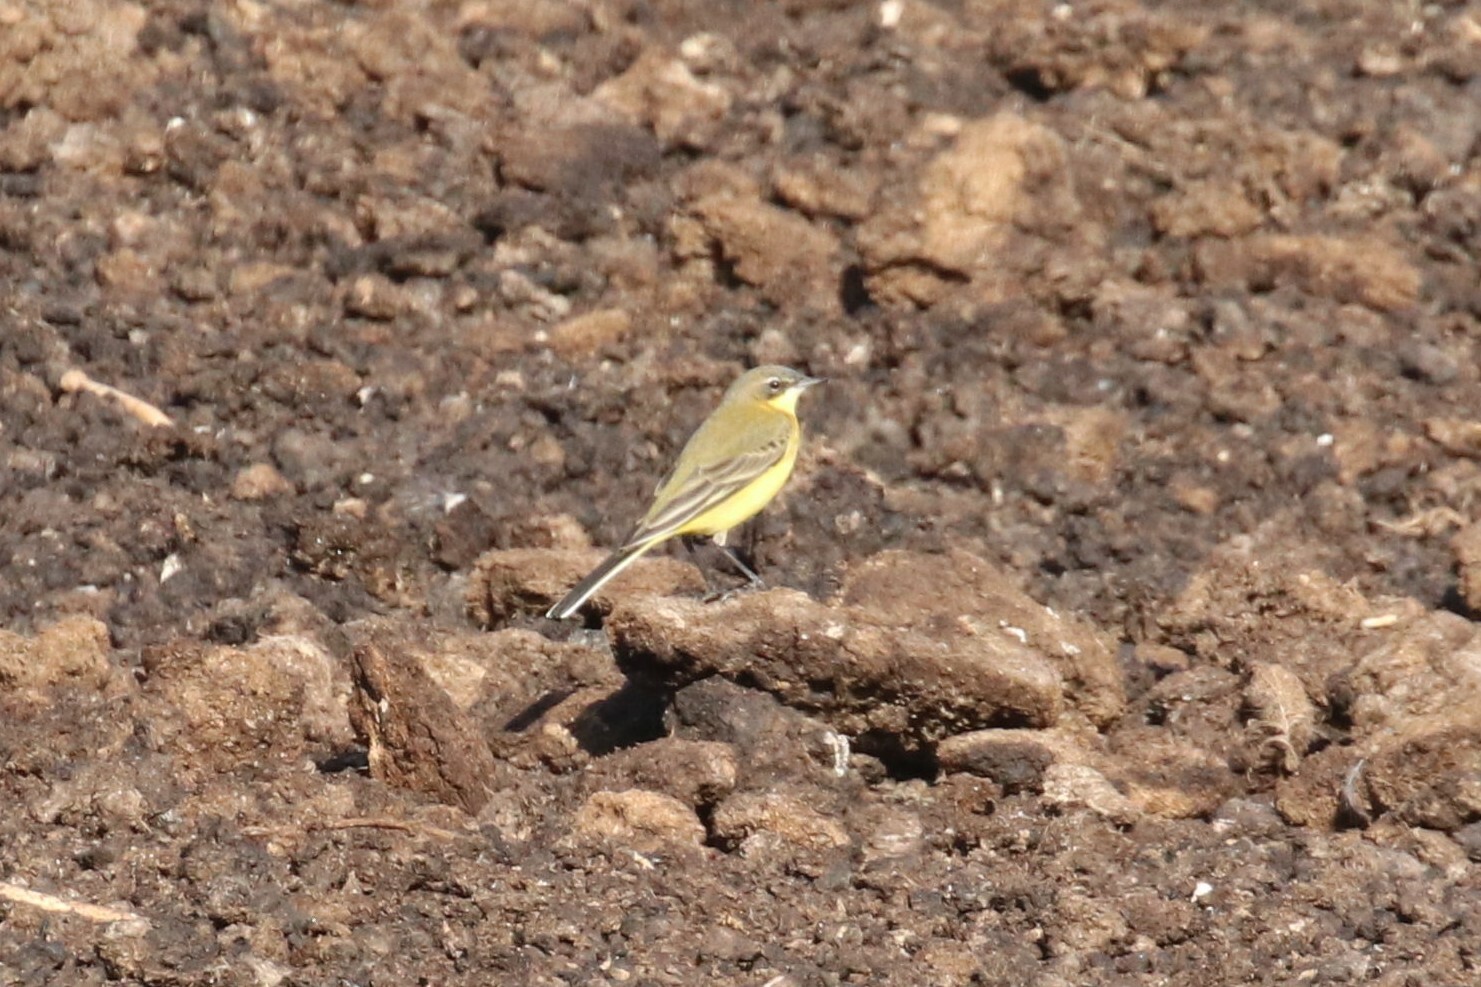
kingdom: Animalia
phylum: Chordata
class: Aves
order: Passeriformes
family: Motacillidae
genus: Motacilla
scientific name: Motacilla flava
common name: Western yellow wagtail
